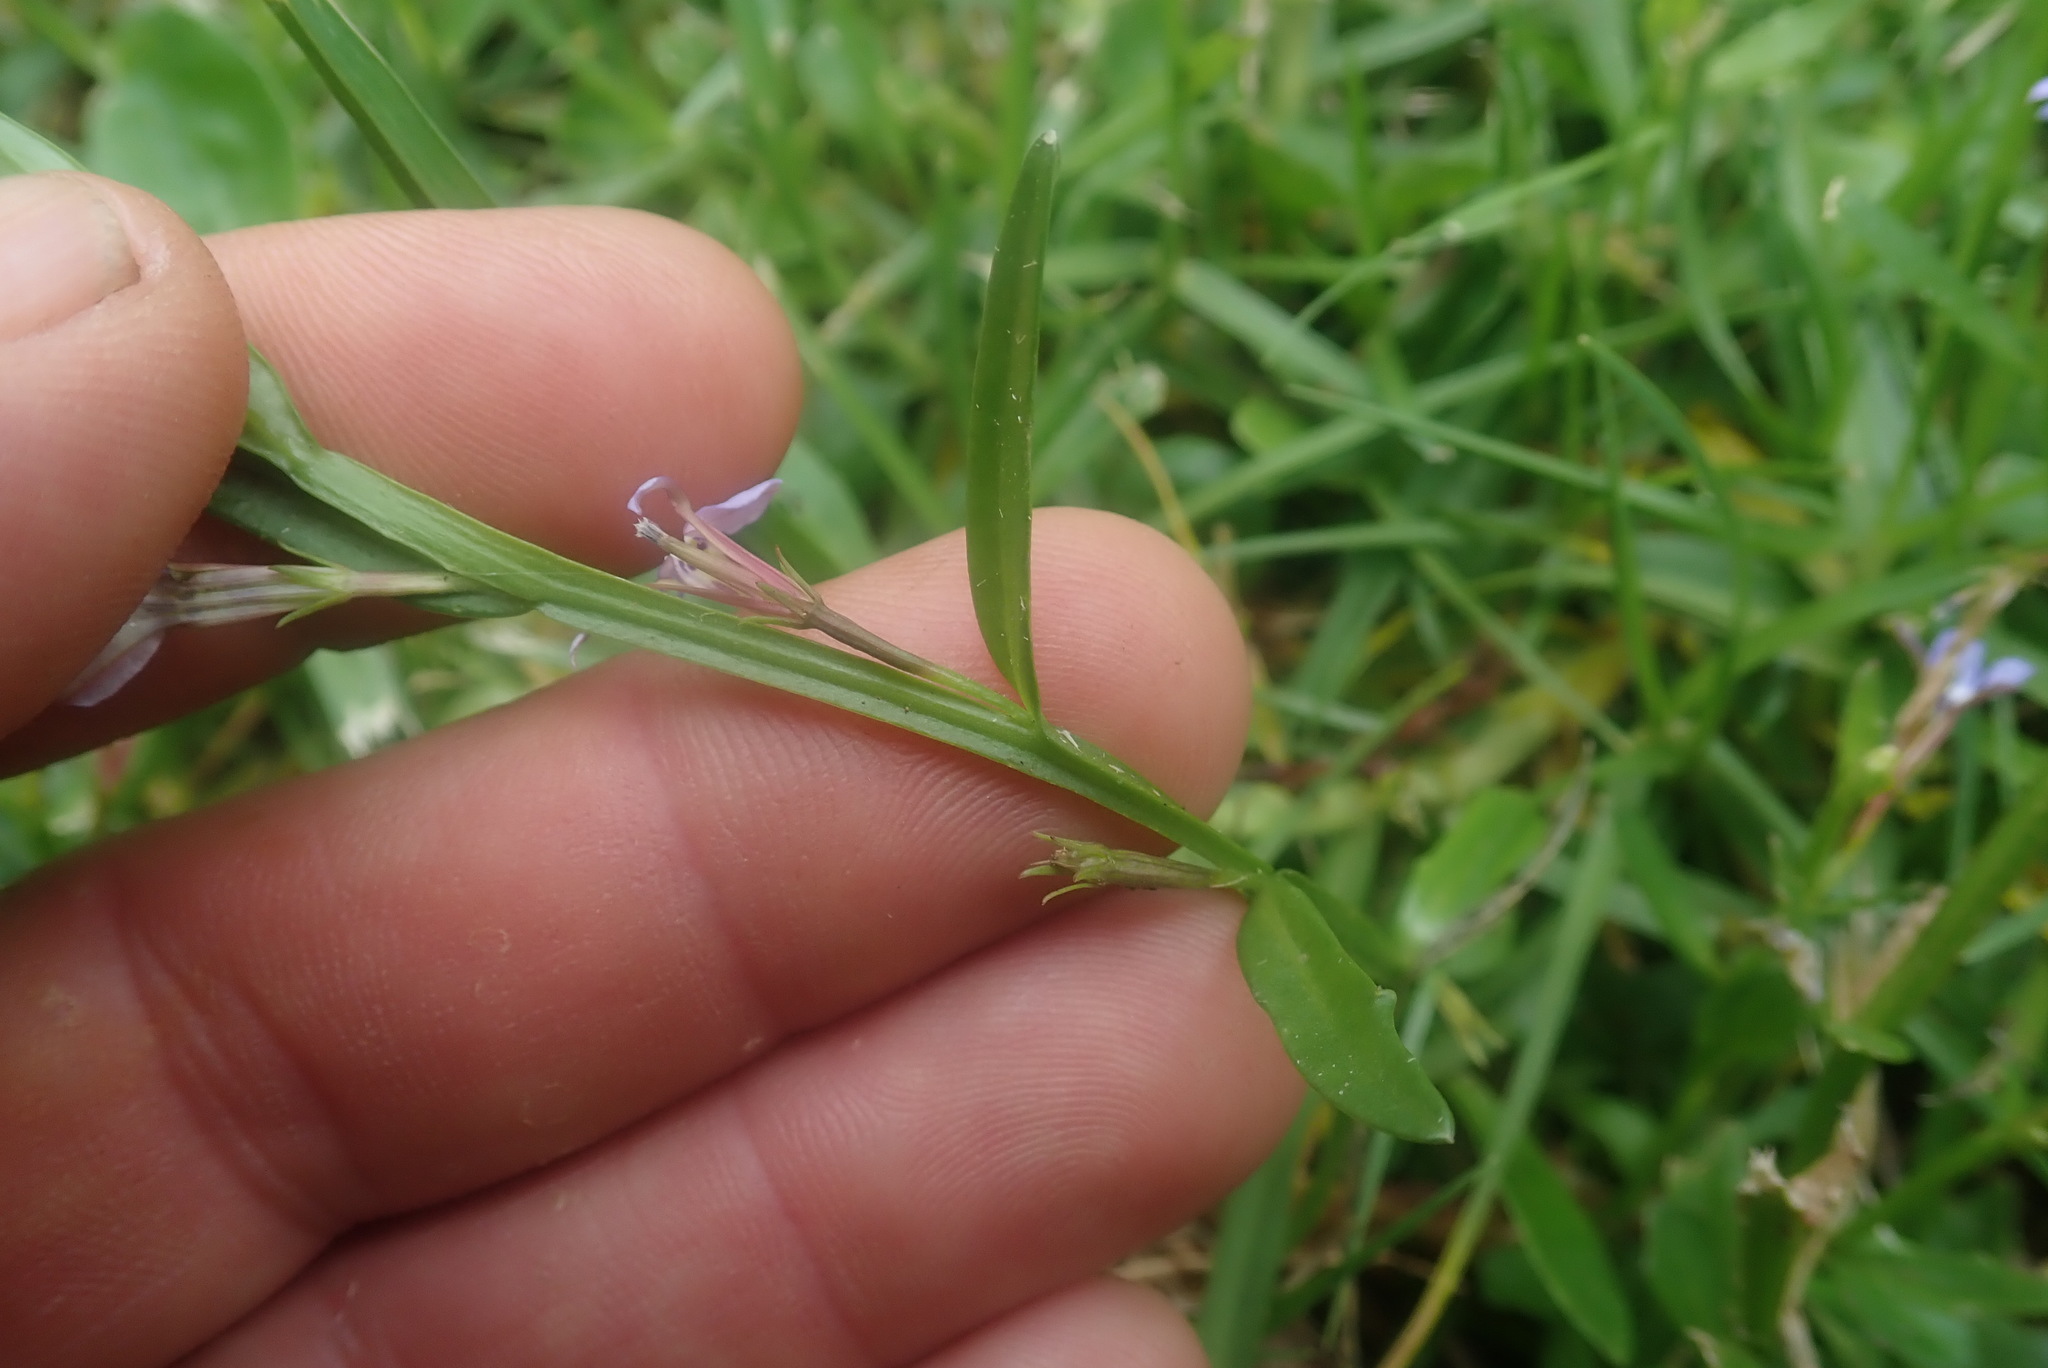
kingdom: Plantae
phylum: Tracheophyta
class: Magnoliopsida
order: Asterales
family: Campanulaceae
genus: Lobelia
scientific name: Lobelia anceps
